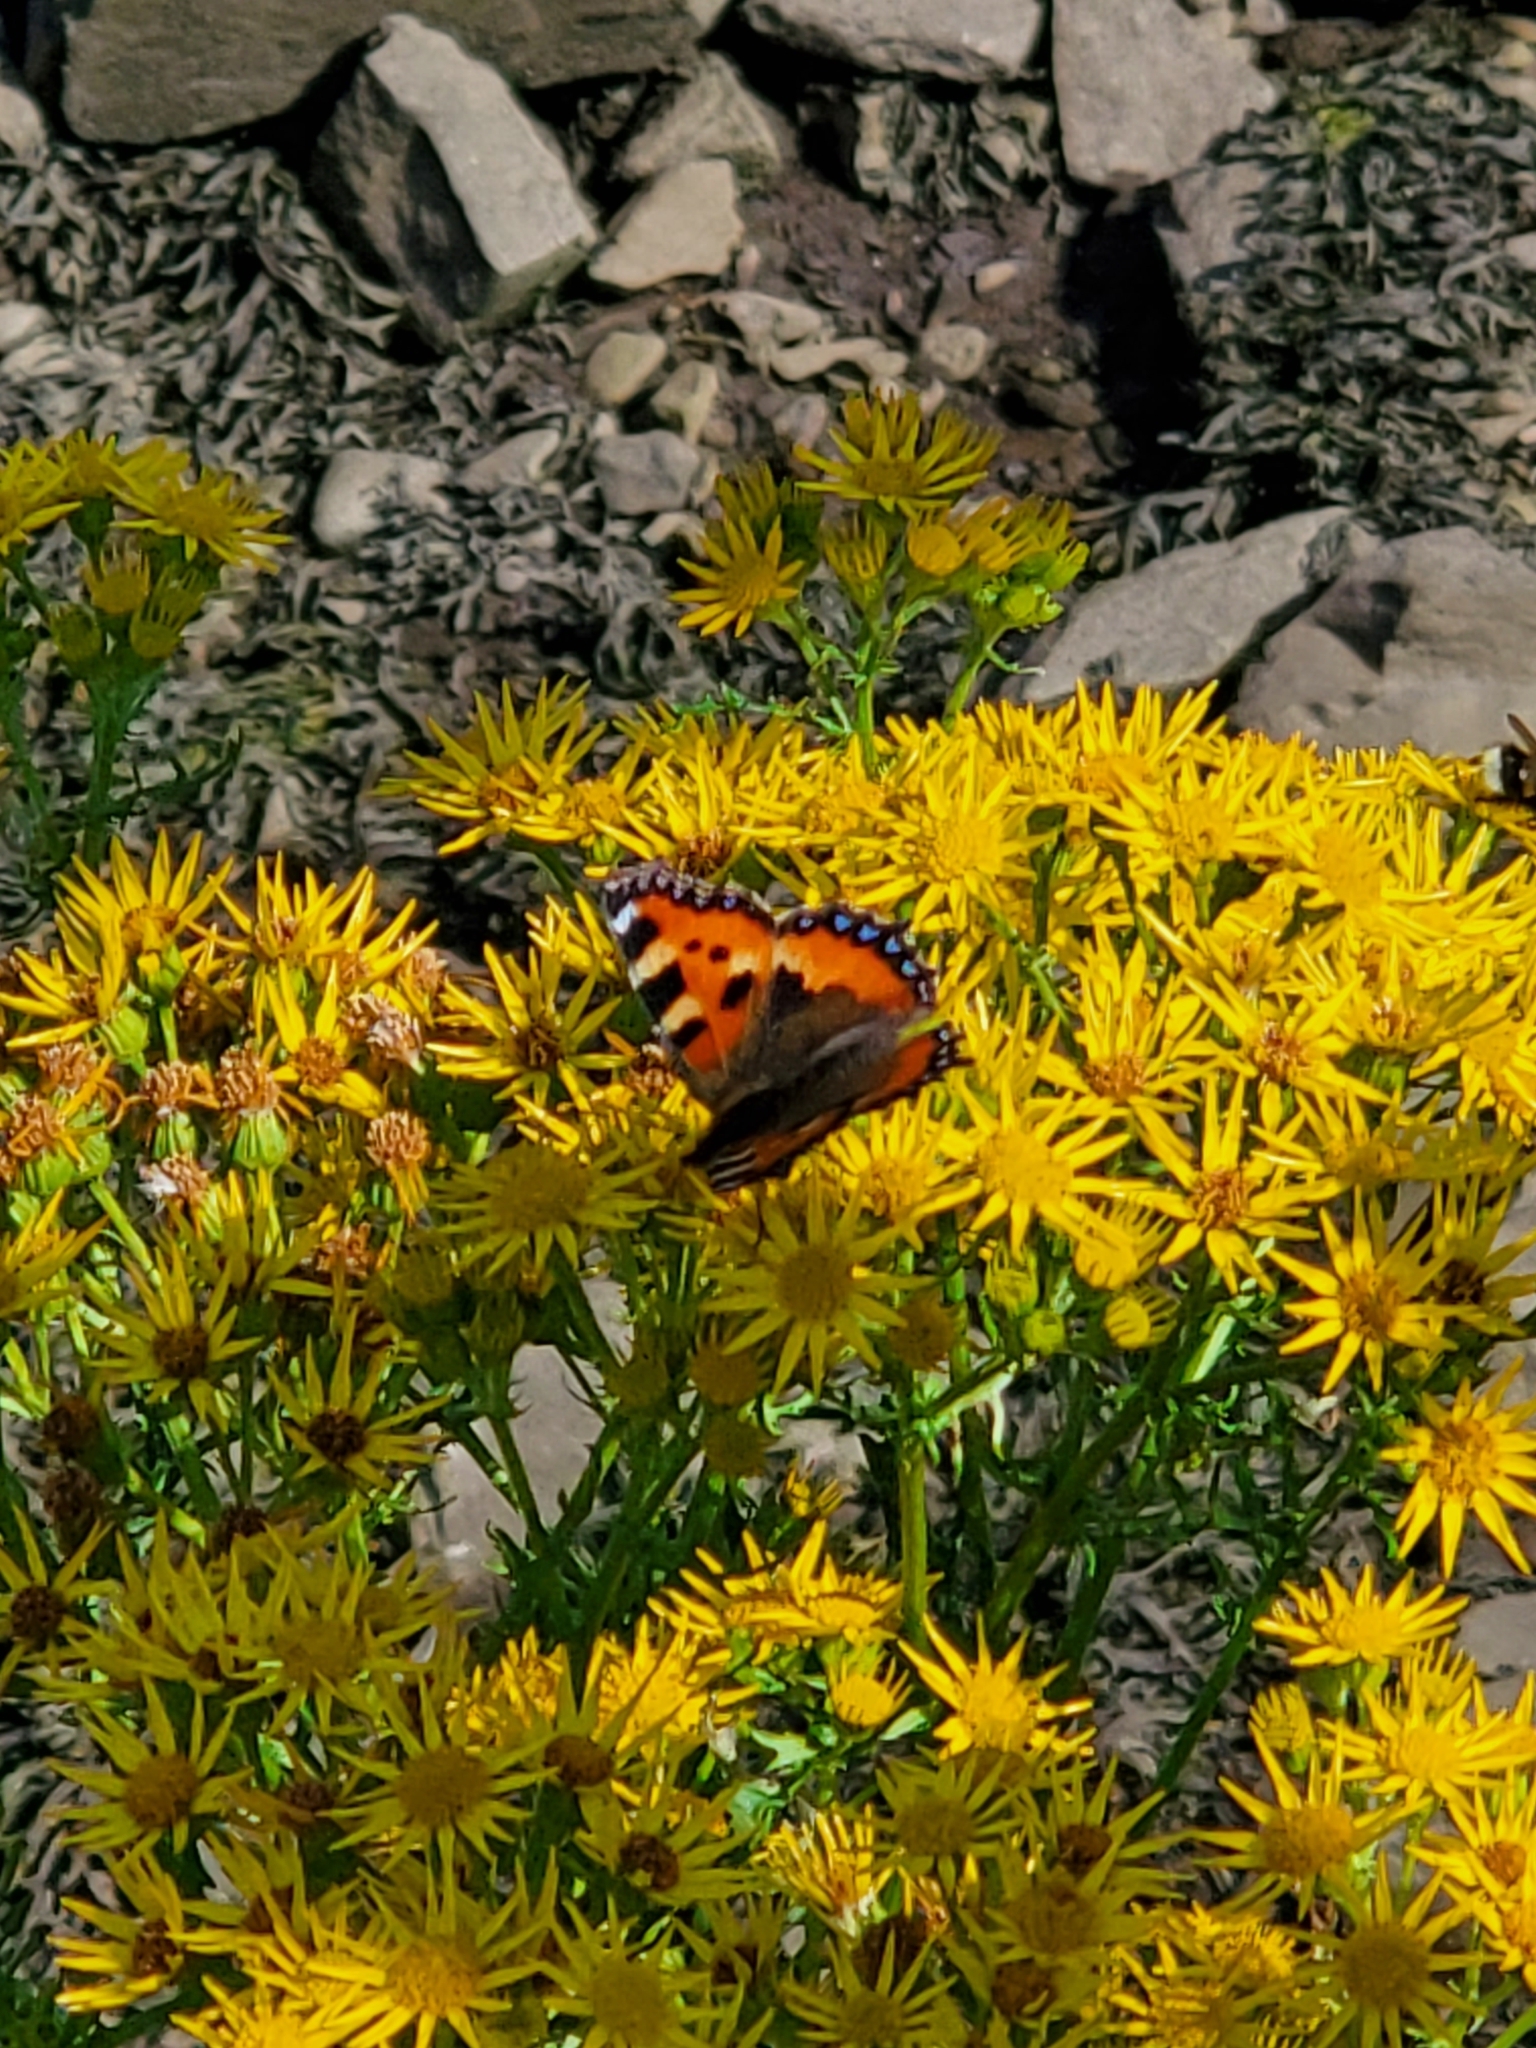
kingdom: Animalia
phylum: Arthropoda
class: Insecta
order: Lepidoptera
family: Nymphalidae
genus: Aglais
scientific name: Aglais urticae
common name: Small tortoiseshell
